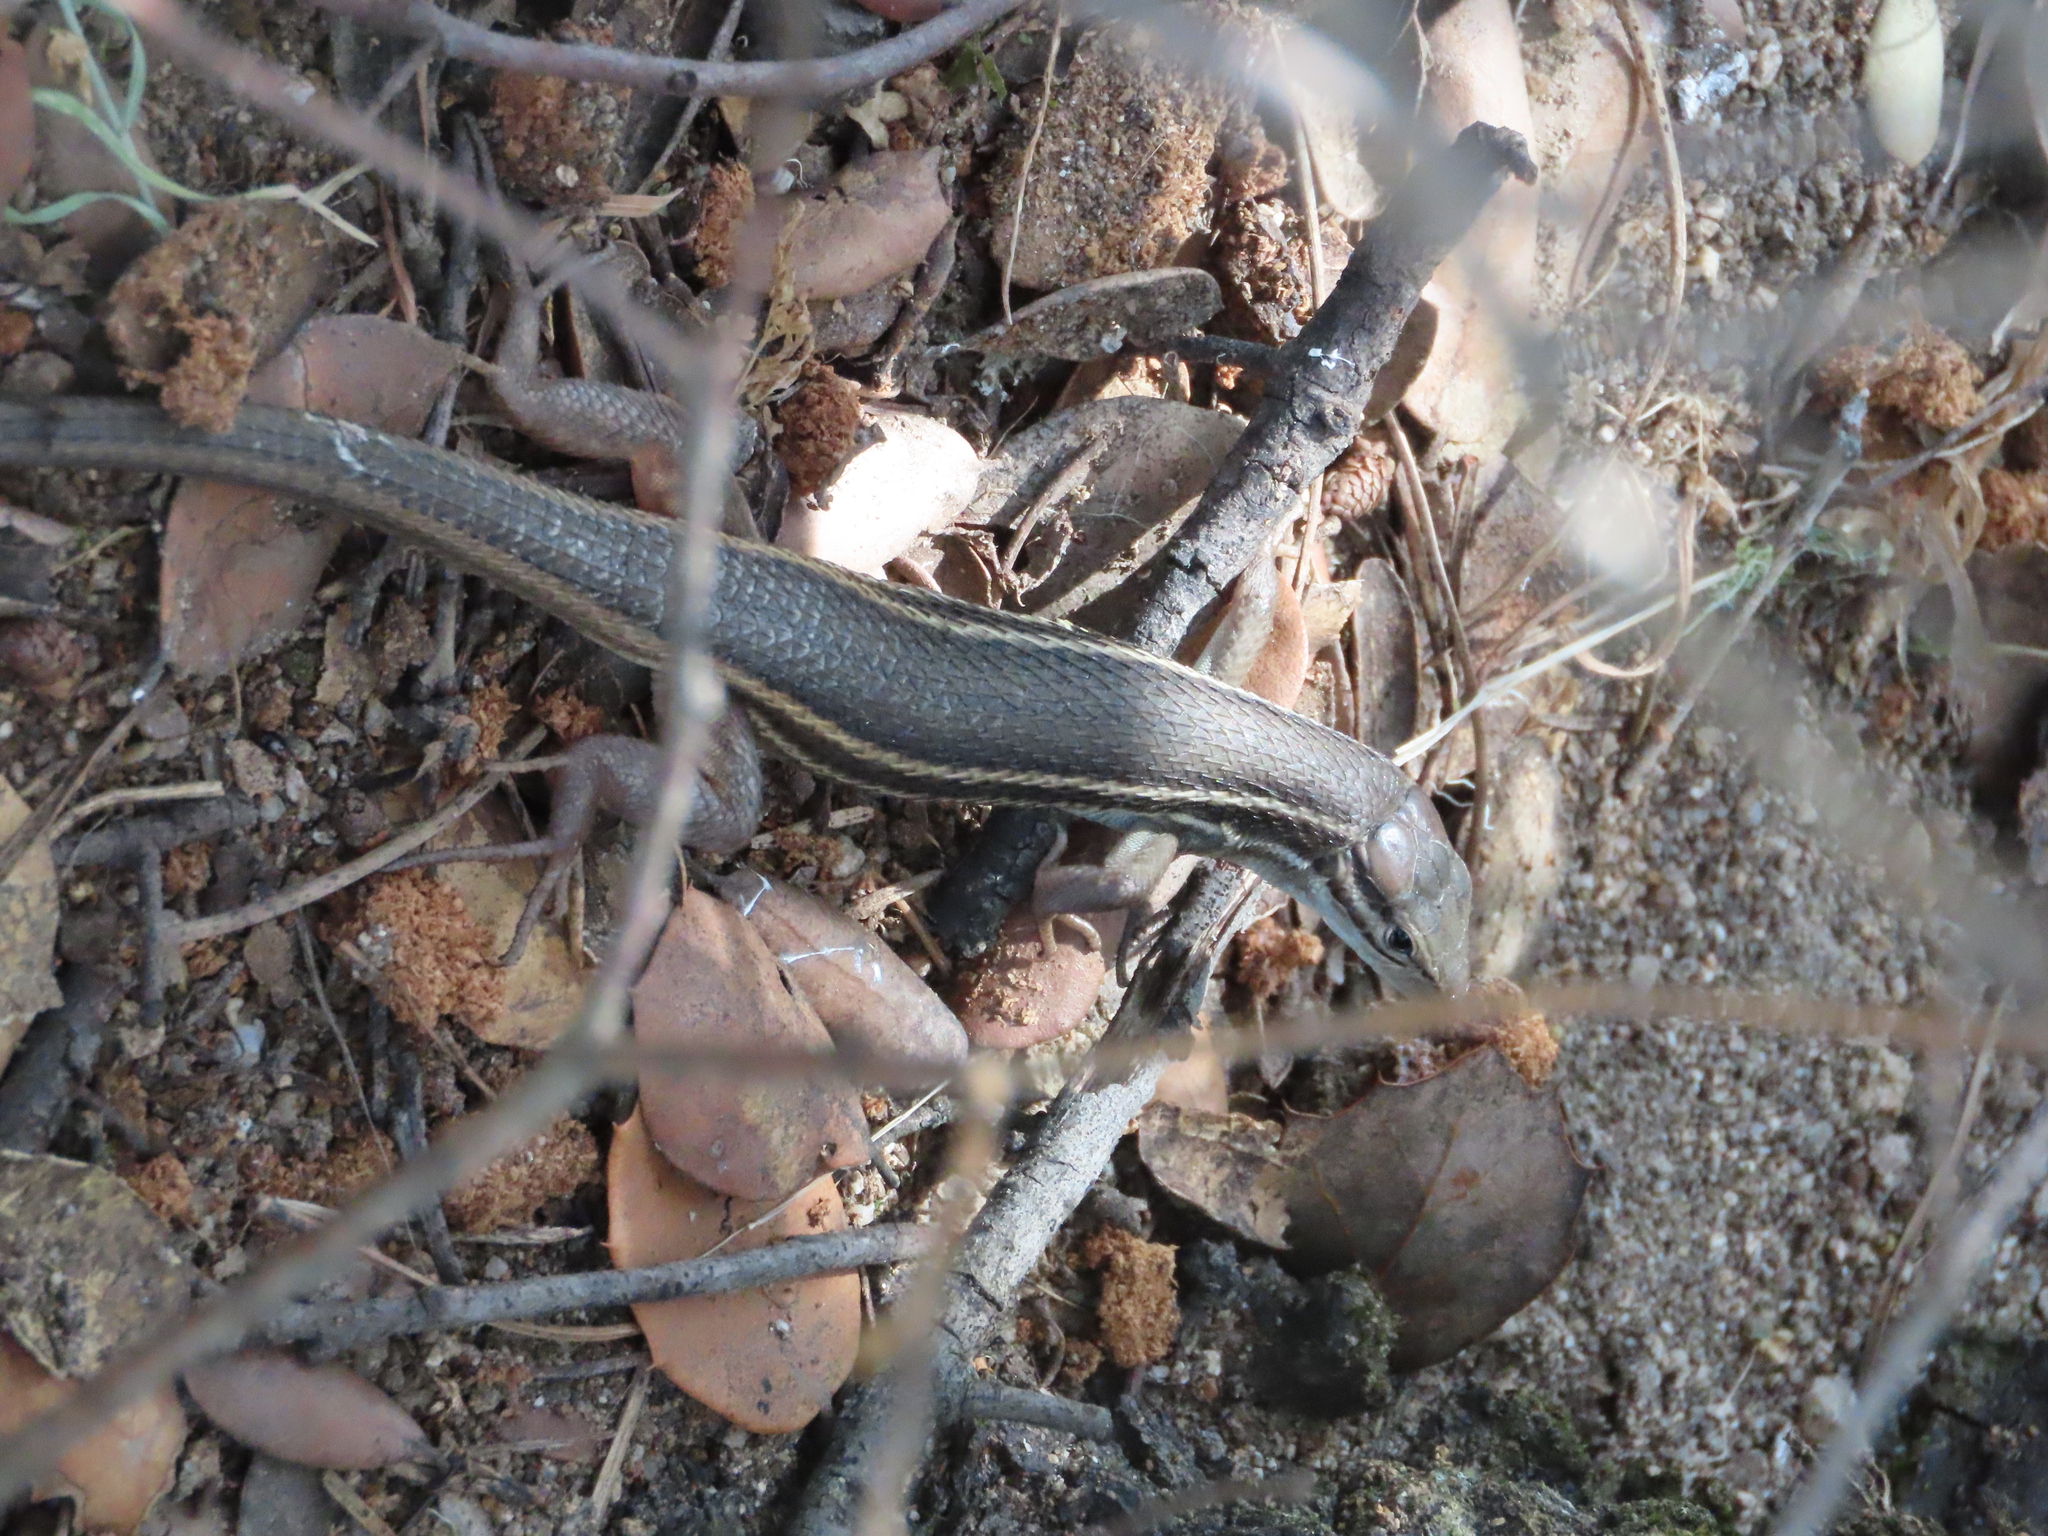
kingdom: Animalia
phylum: Chordata
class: Squamata
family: Lacertidae
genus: Psammodromus
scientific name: Psammodromus algirus
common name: Algerian psammodromus
